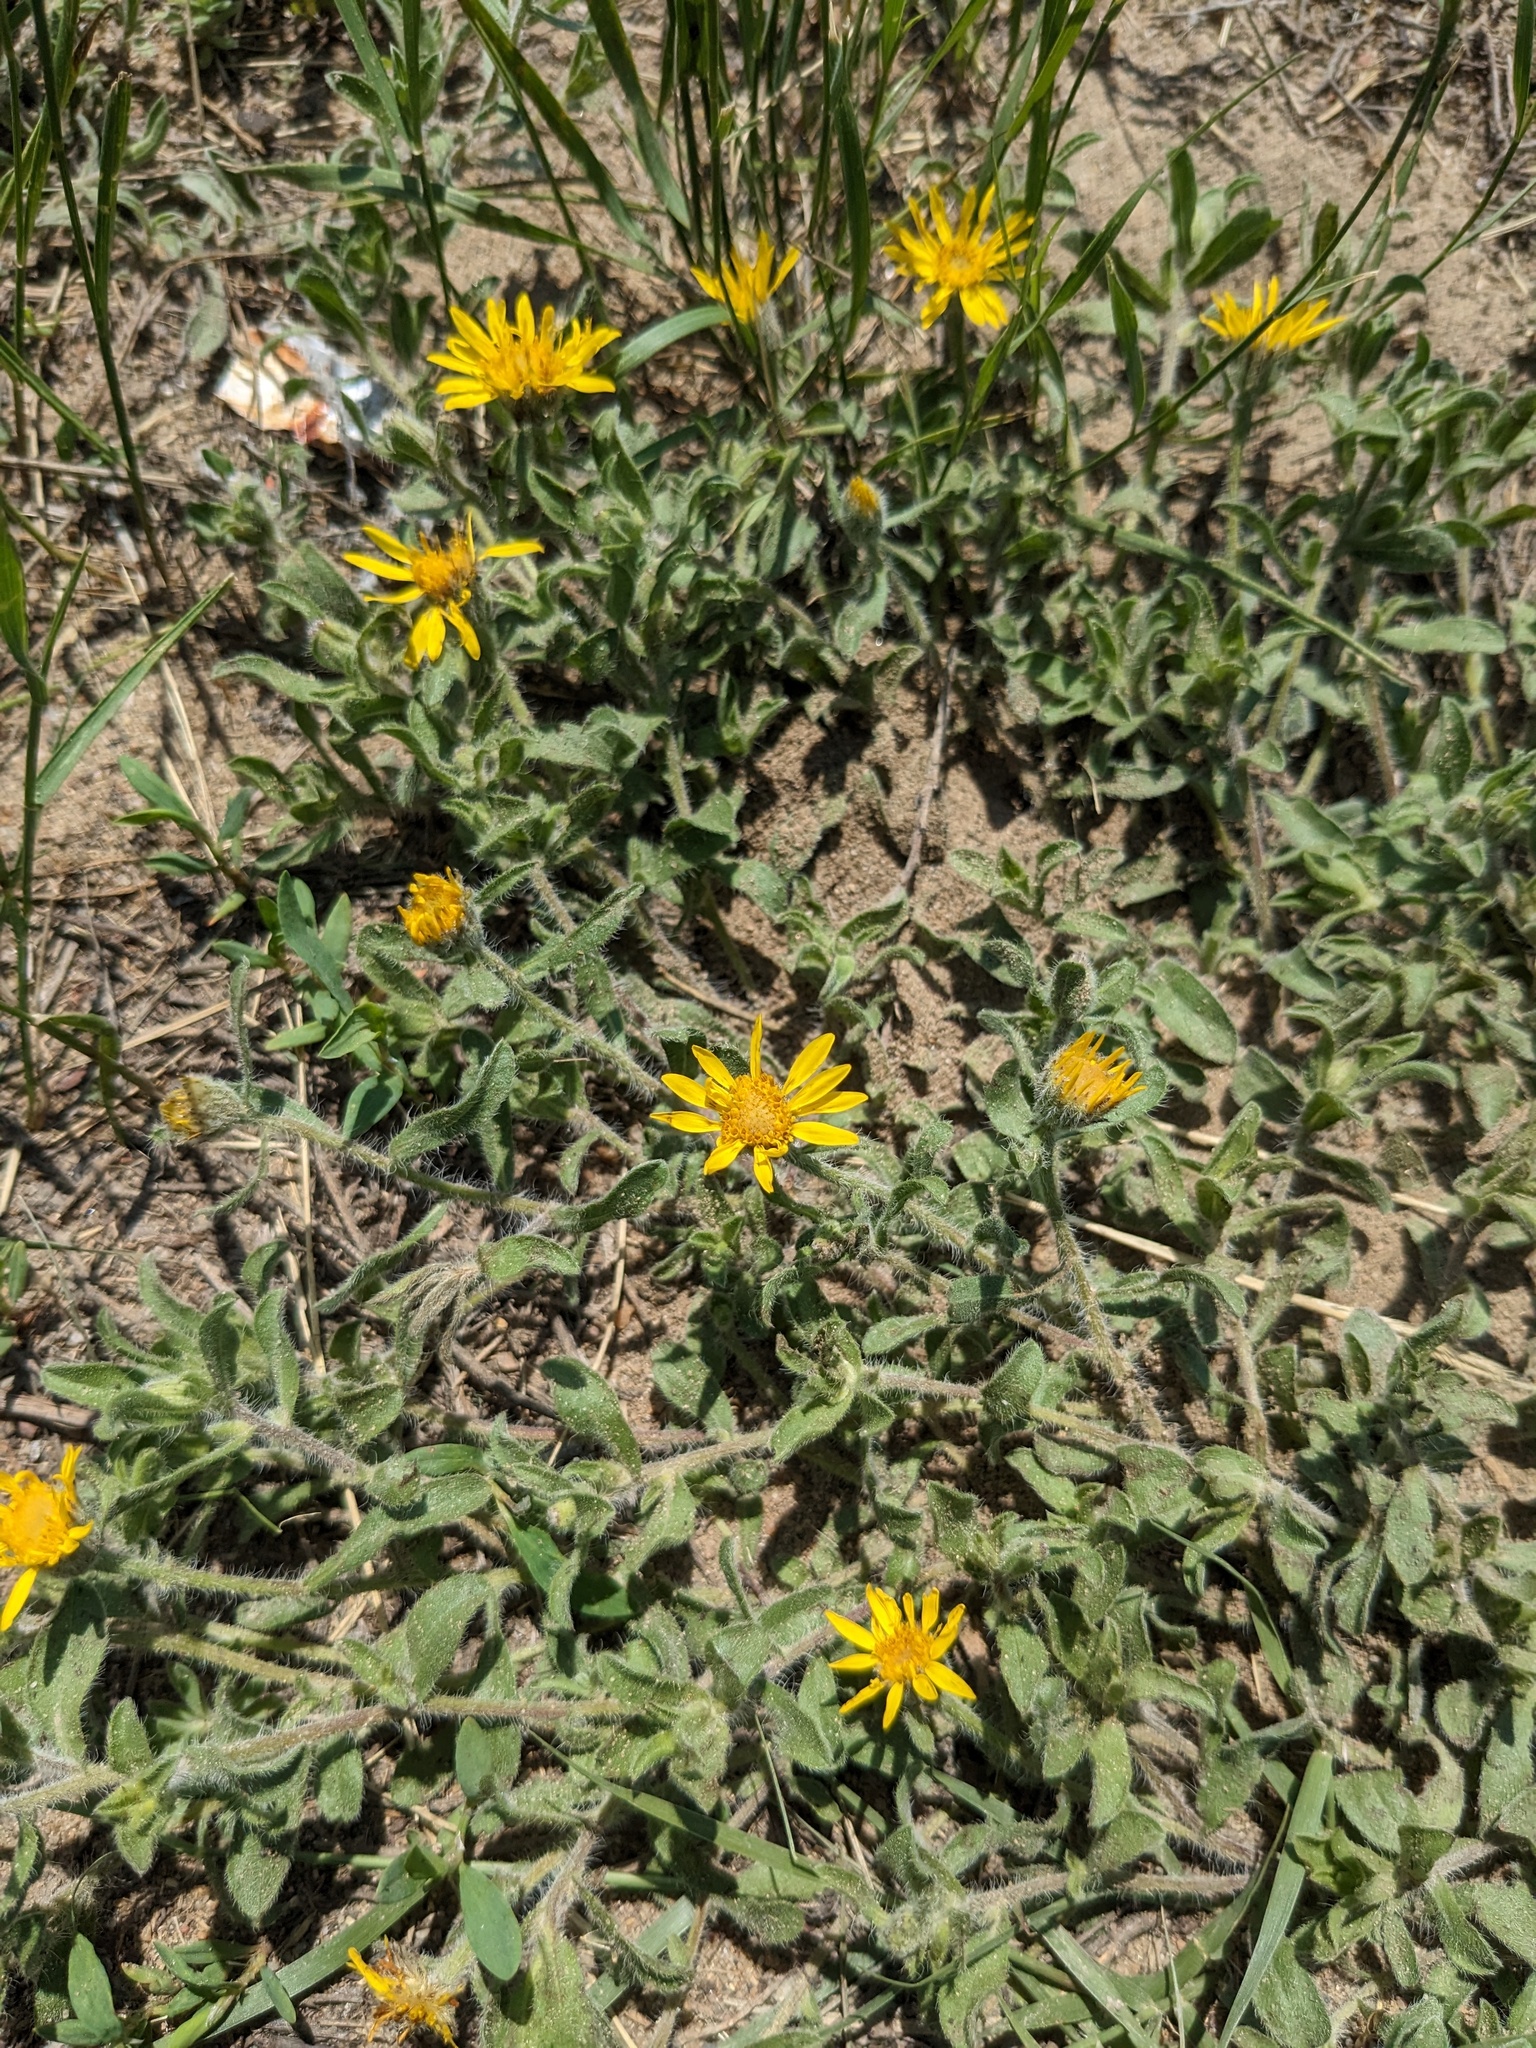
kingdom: Plantae
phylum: Tracheophyta
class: Magnoliopsida
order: Asterales
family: Asteraceae
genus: Heterotheca
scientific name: Heterotheca villosa
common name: Hairy false goldenaster
